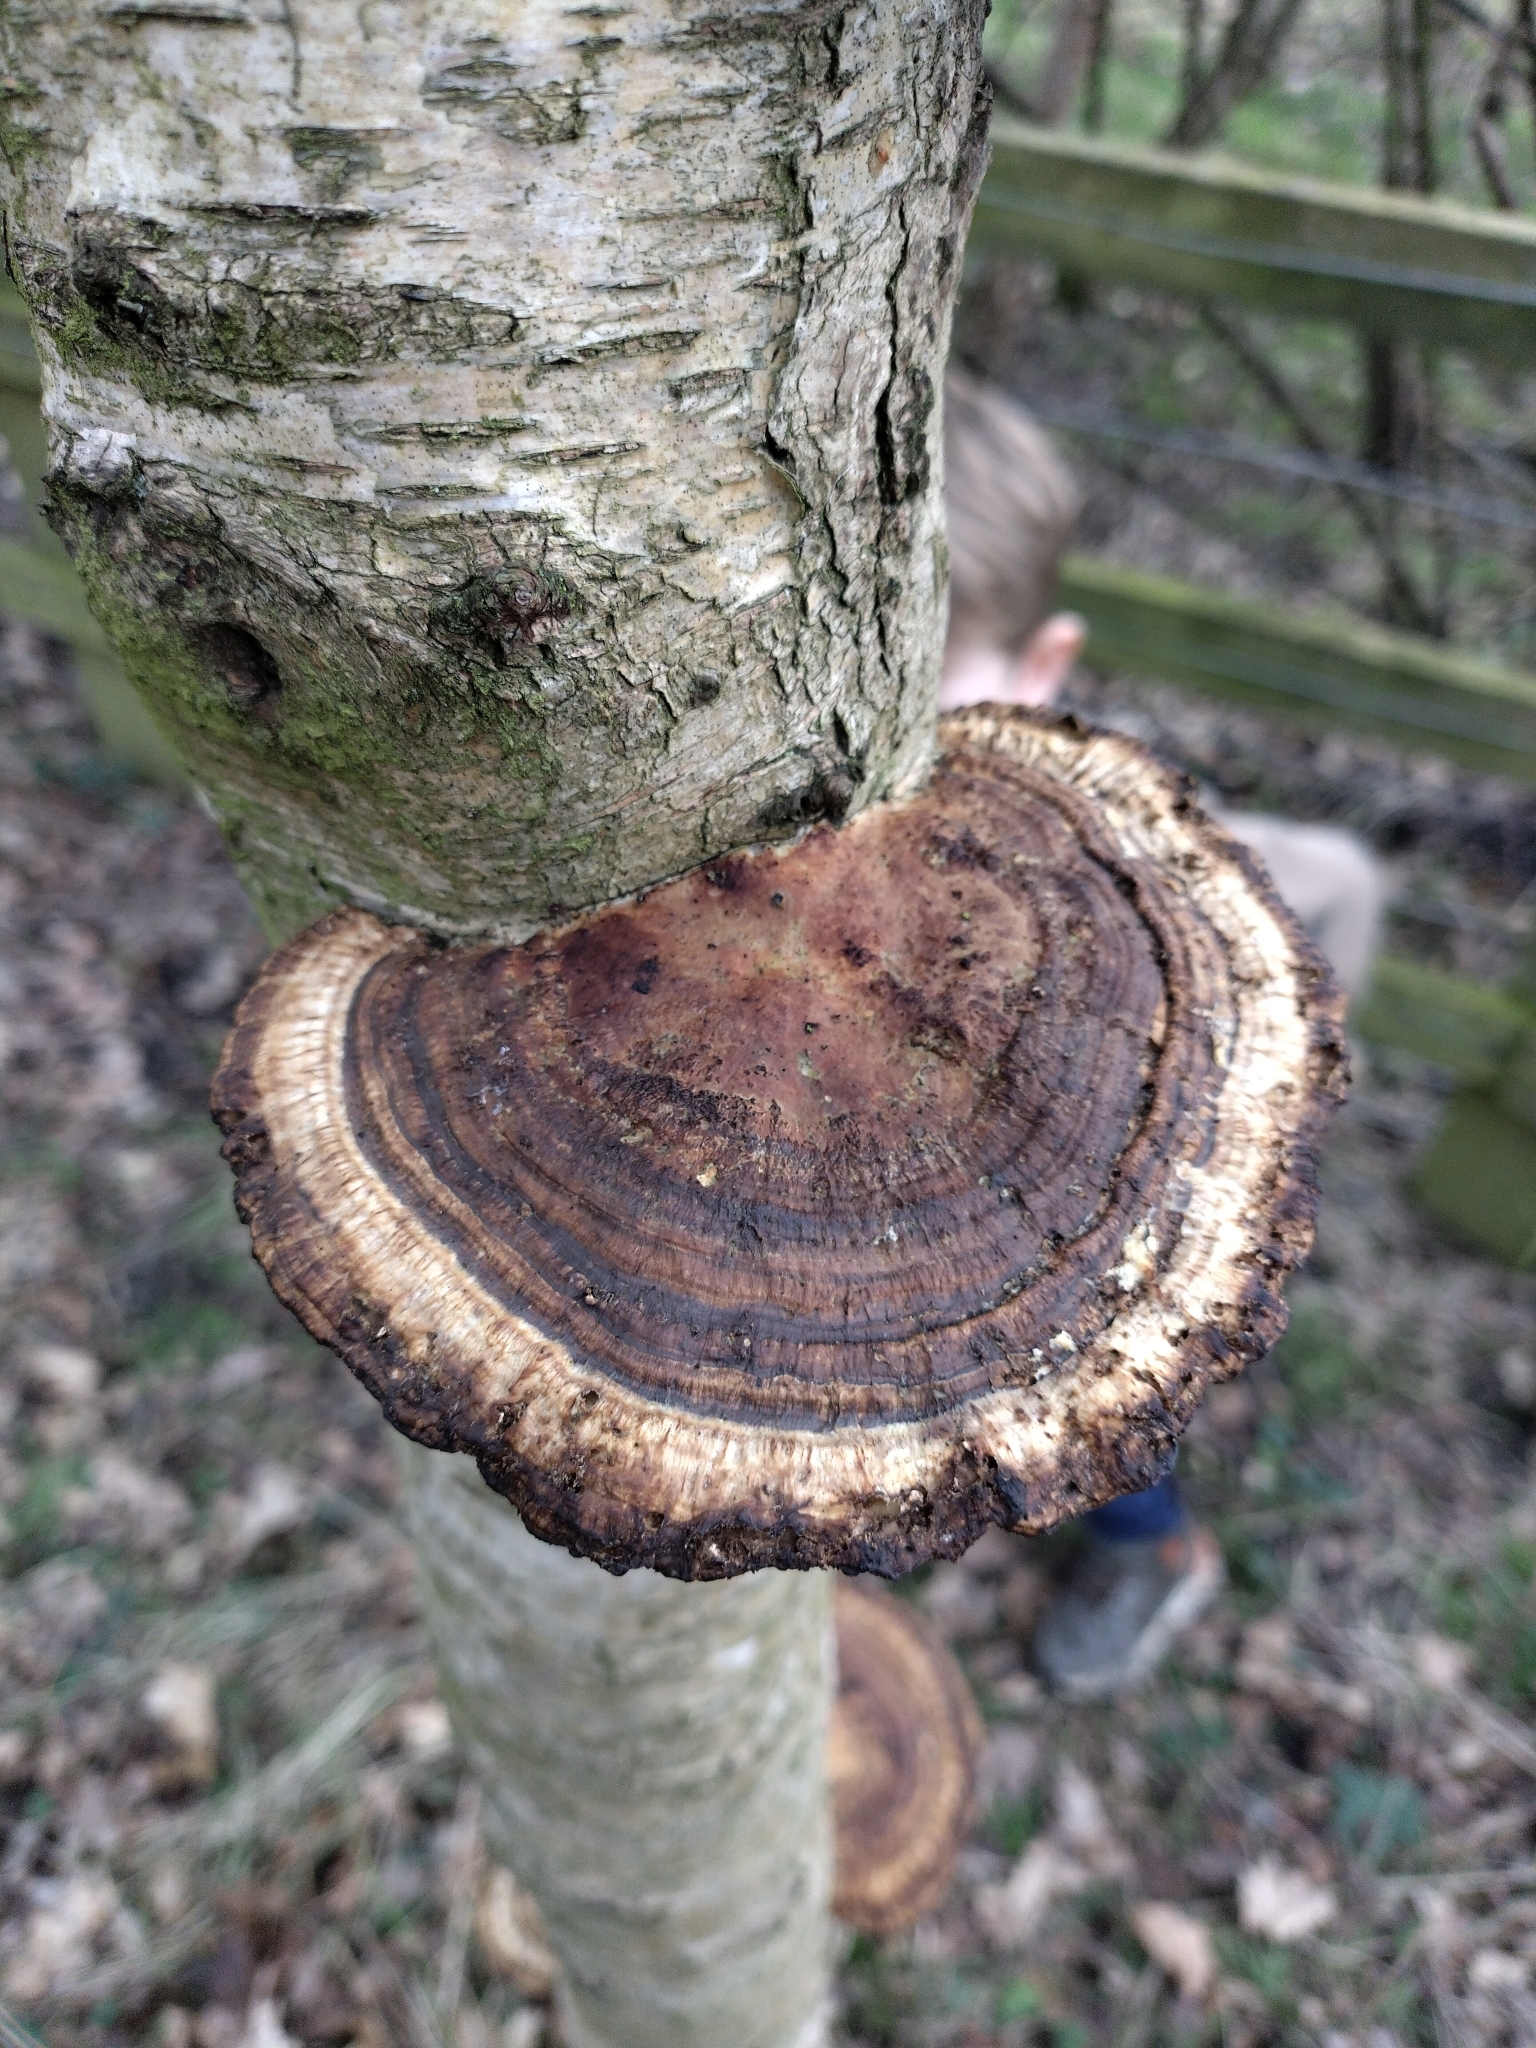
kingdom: Fungi
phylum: Basidiomycota
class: Agaricomycetes
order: Polyporales
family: Polyporaceae
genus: Daedaleopsis
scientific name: Daedaleopsis confragosa
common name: Blushing bracket
